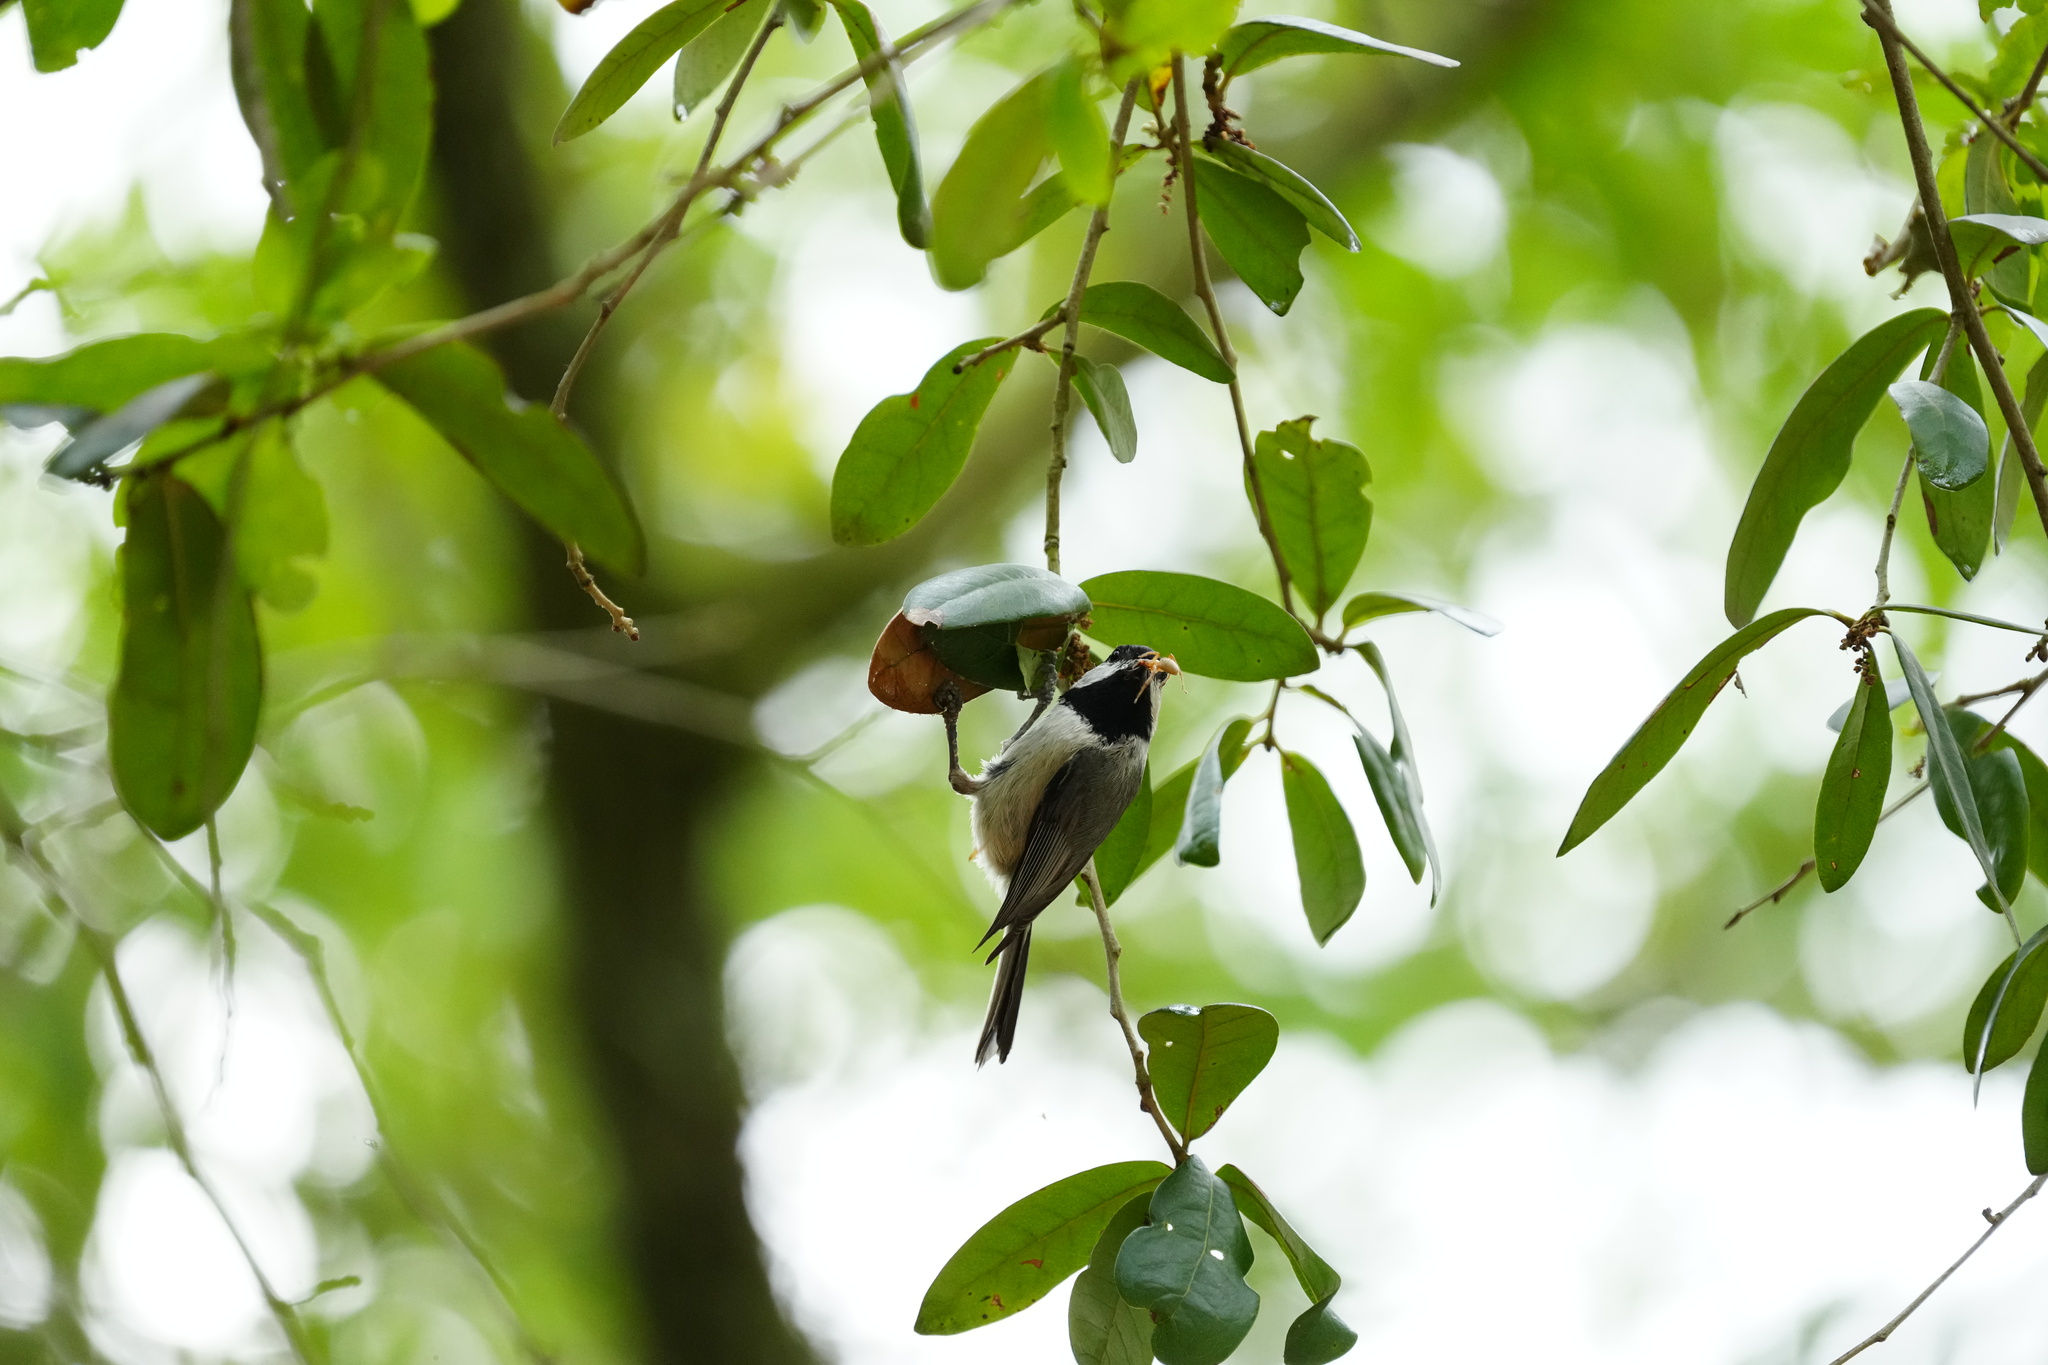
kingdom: Animalia
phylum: Chordata
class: Aves
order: Passeriformes
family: Paridae
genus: Poecile
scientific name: Poecile carolinensis
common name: Carolina chickadee
